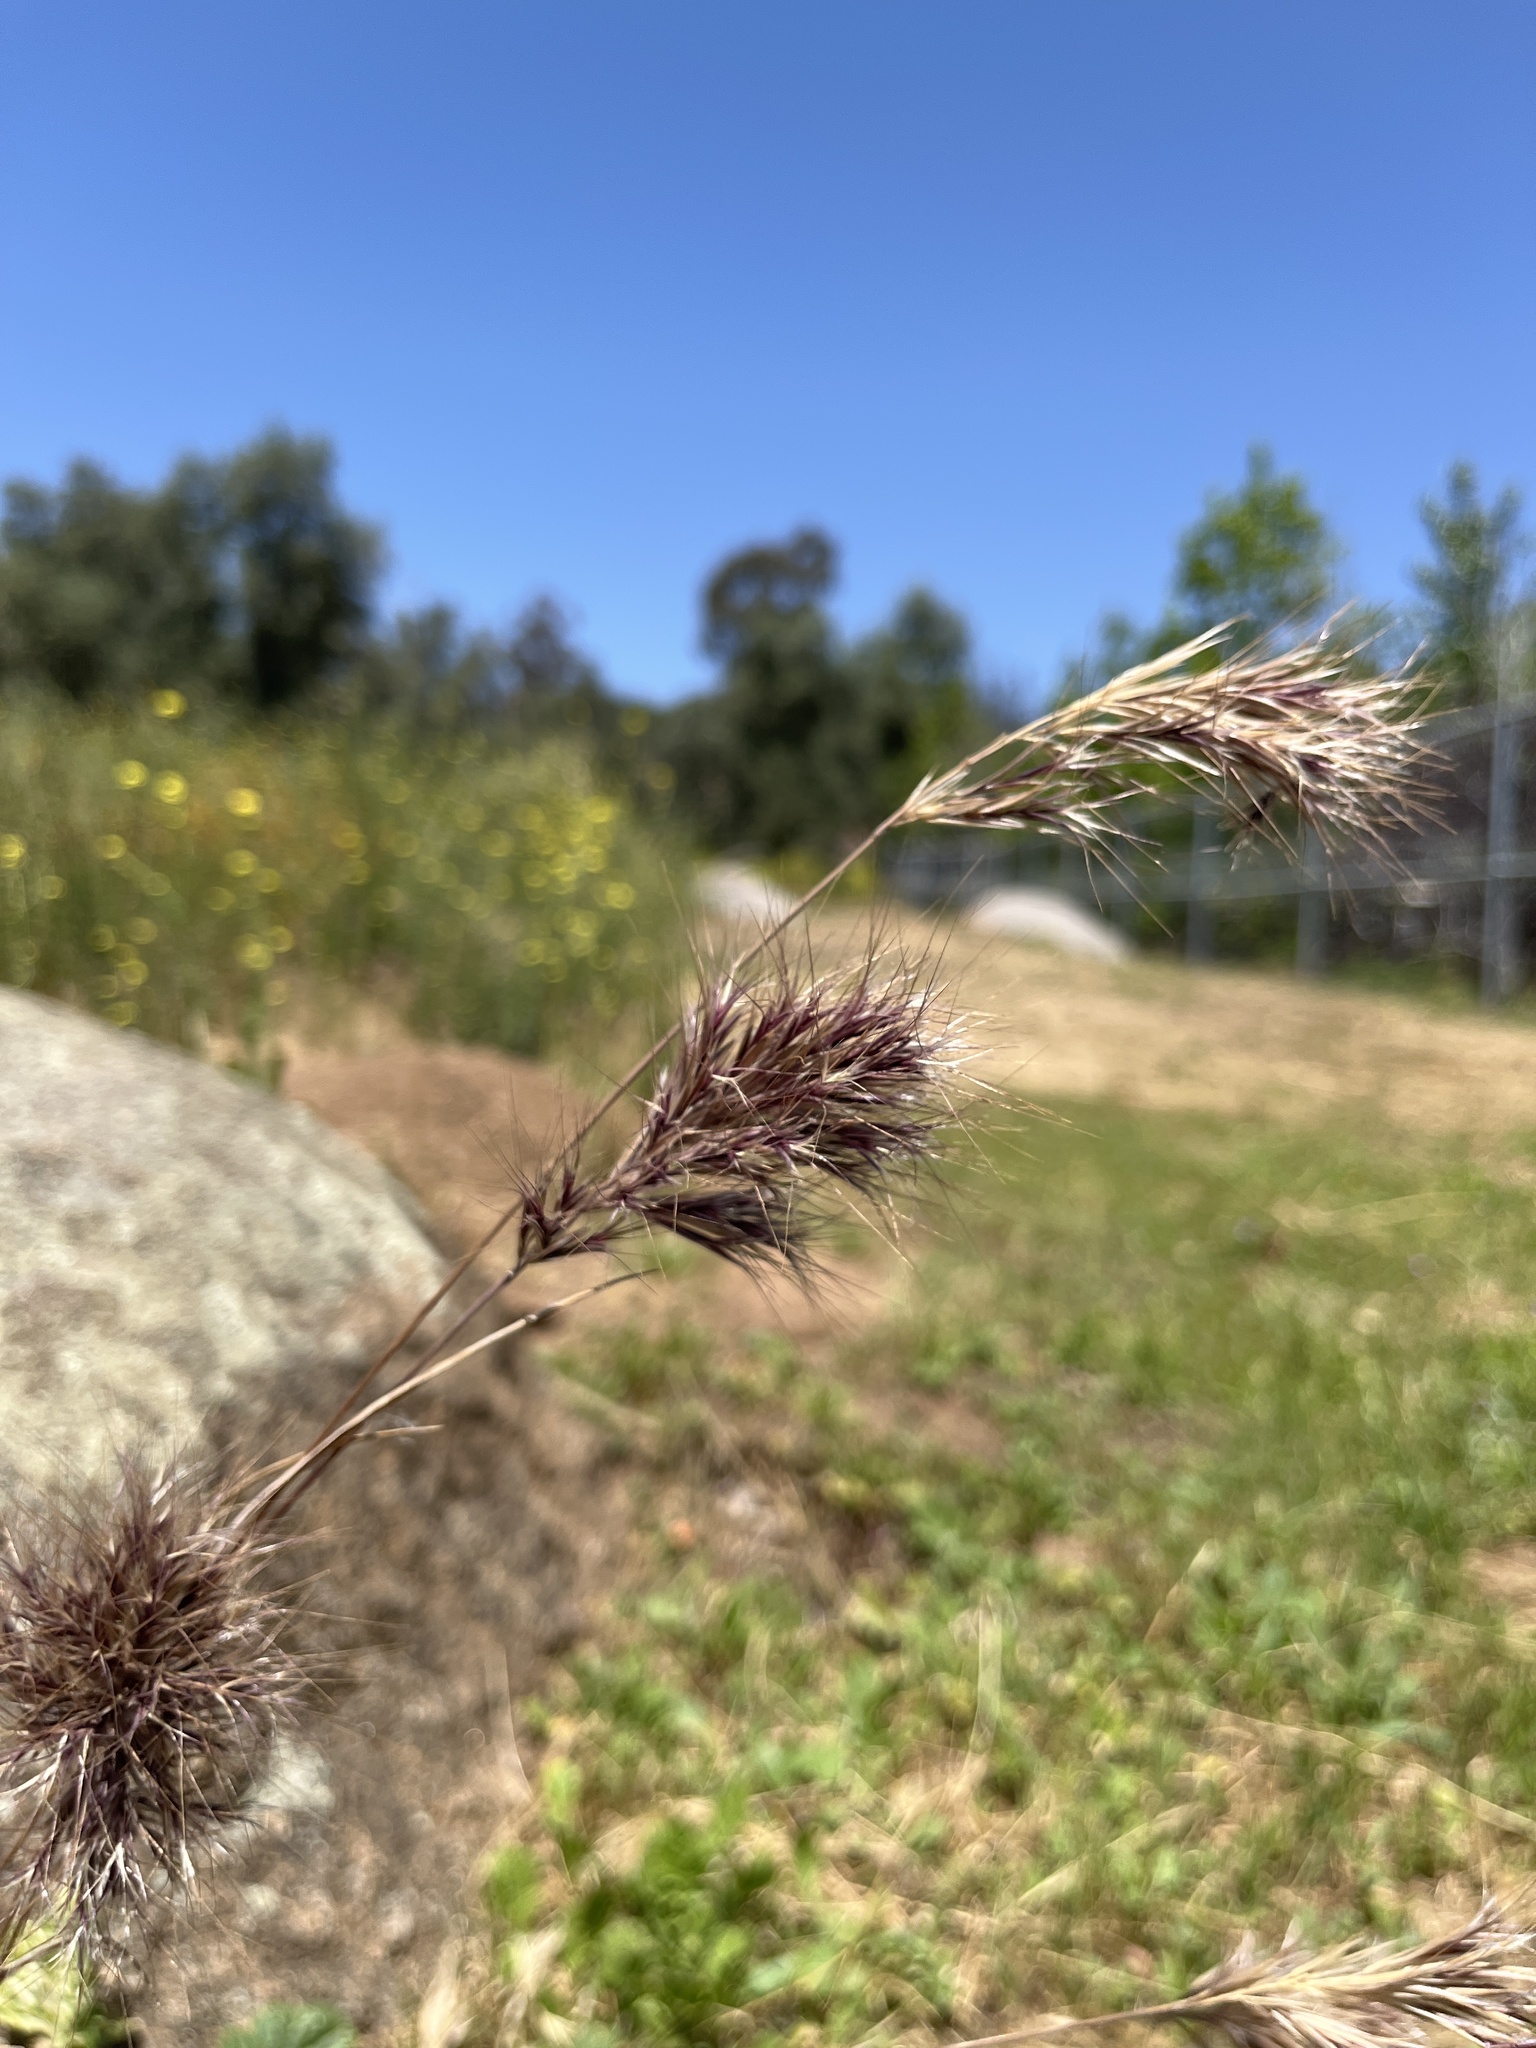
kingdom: Plantae
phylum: Tracheophyta
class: Liliopsida
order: Poales
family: Poaceae
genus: Bromus
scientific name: Bromus rubens
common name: Red brome
